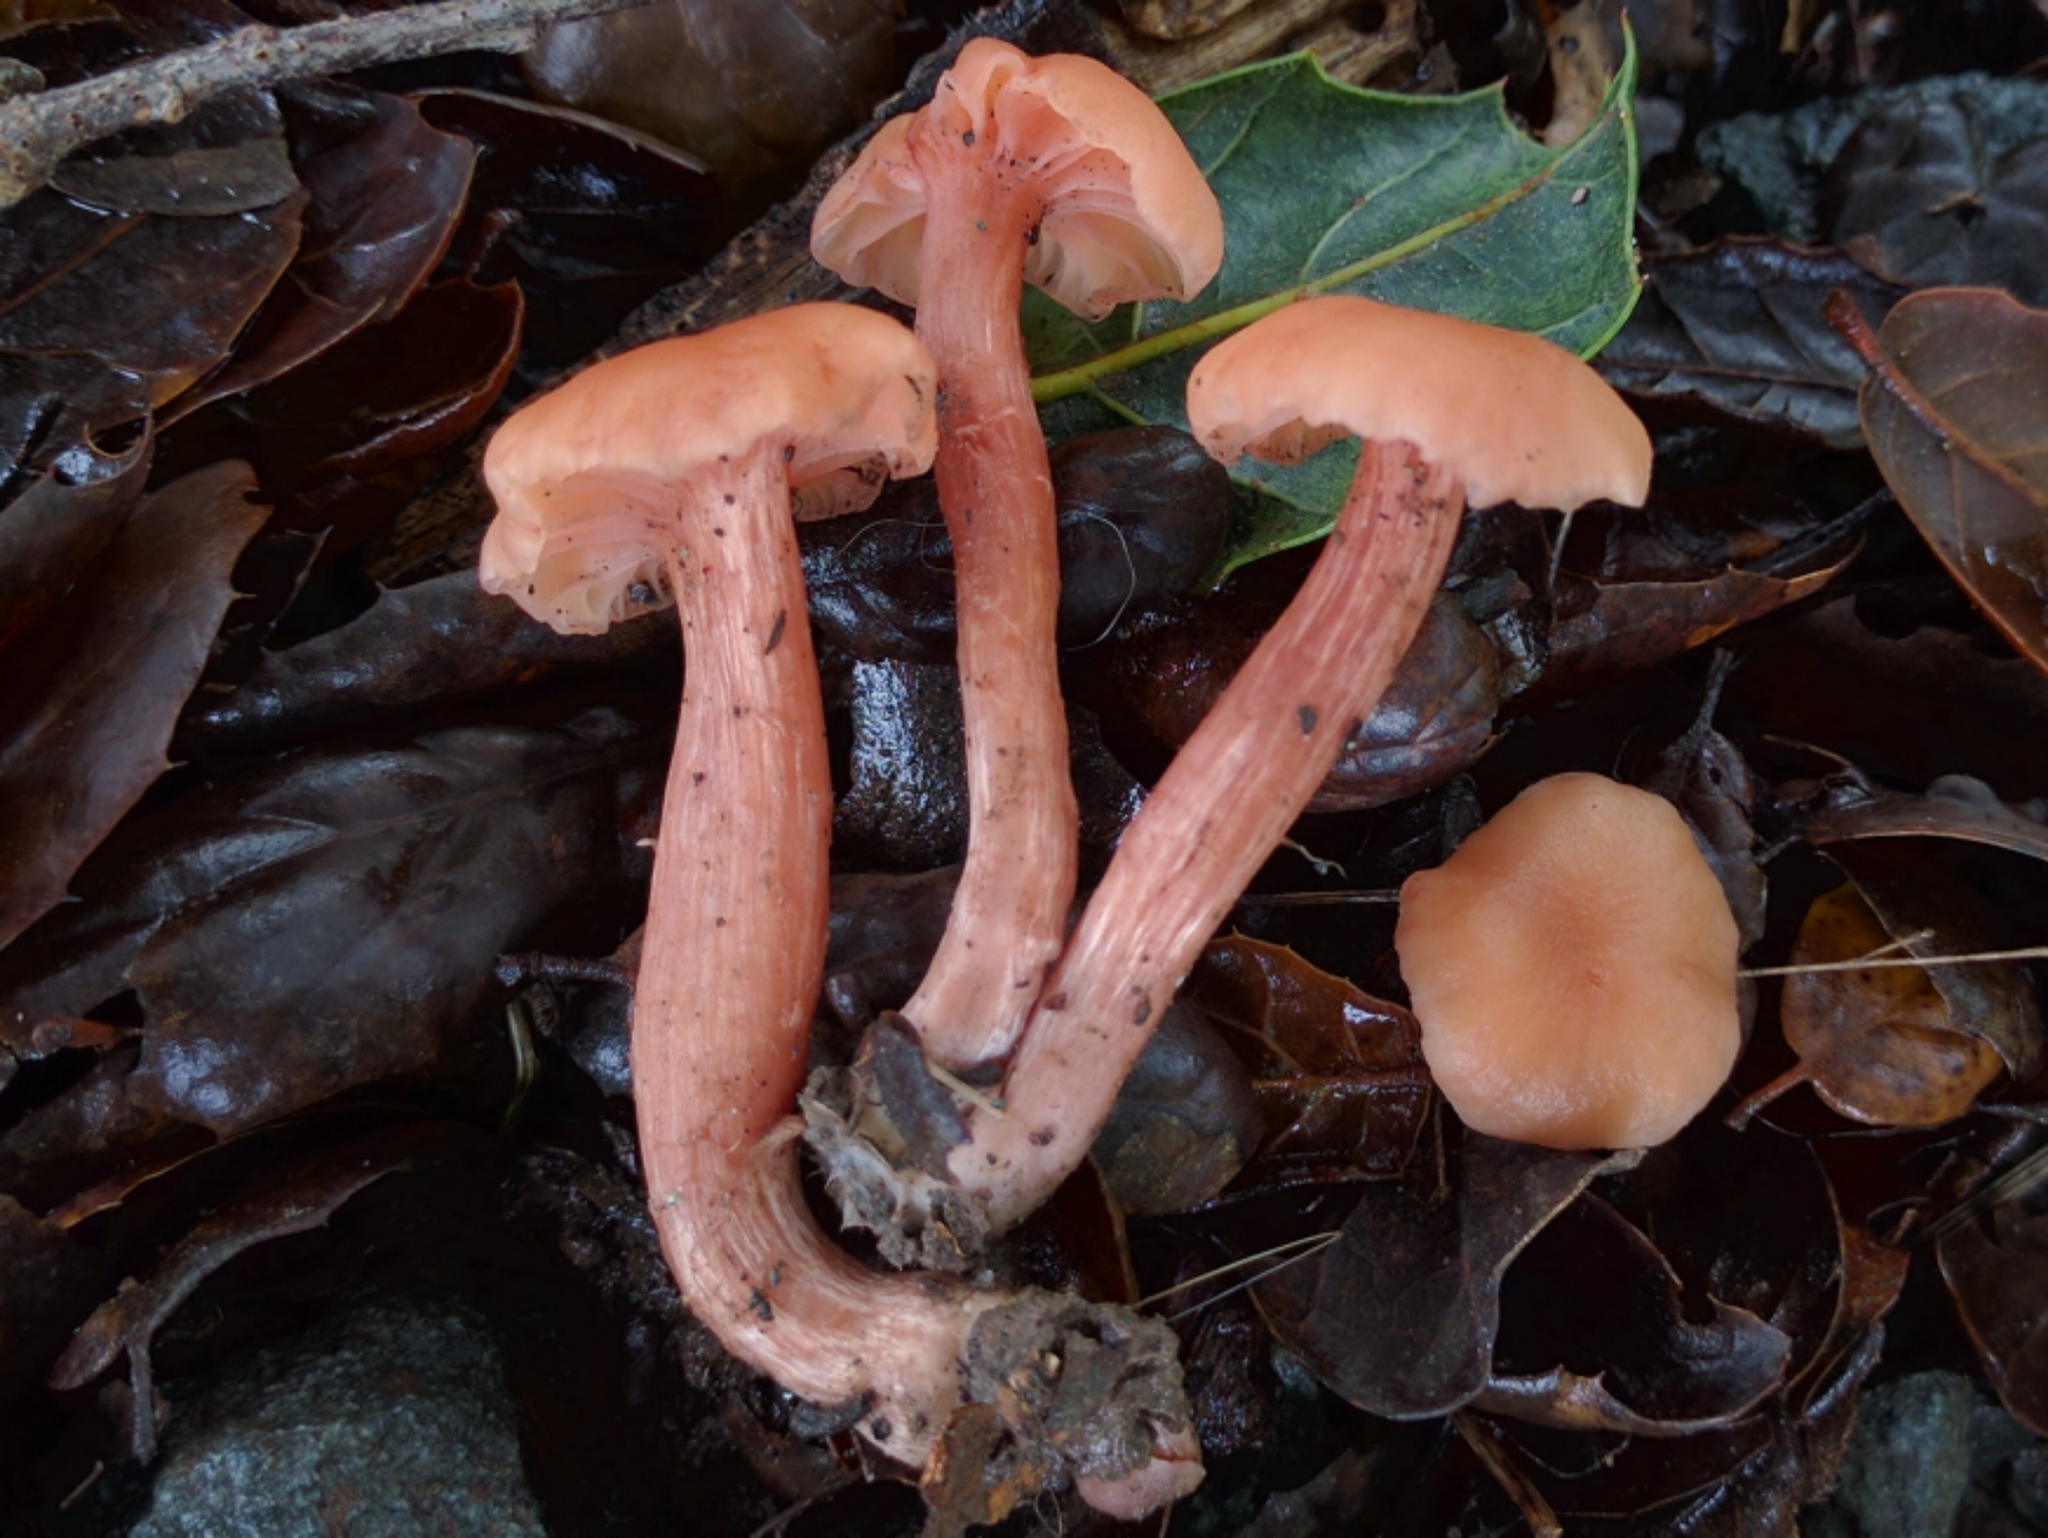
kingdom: Fungi
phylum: Basidiomycota
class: Agaricomycetes
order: Agaricales
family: Hydnangiaceae
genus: Laccaria
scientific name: Laccaria laccata
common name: Deceiver
